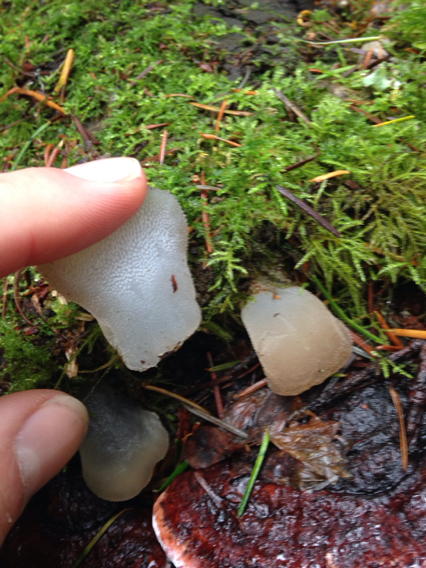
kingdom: Fungi
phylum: Basidiomycota
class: Agaricomycetes
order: Auriculariales
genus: Pseudohydnum
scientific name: Pseudohydnum gelatinosum
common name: Jelly tongue
